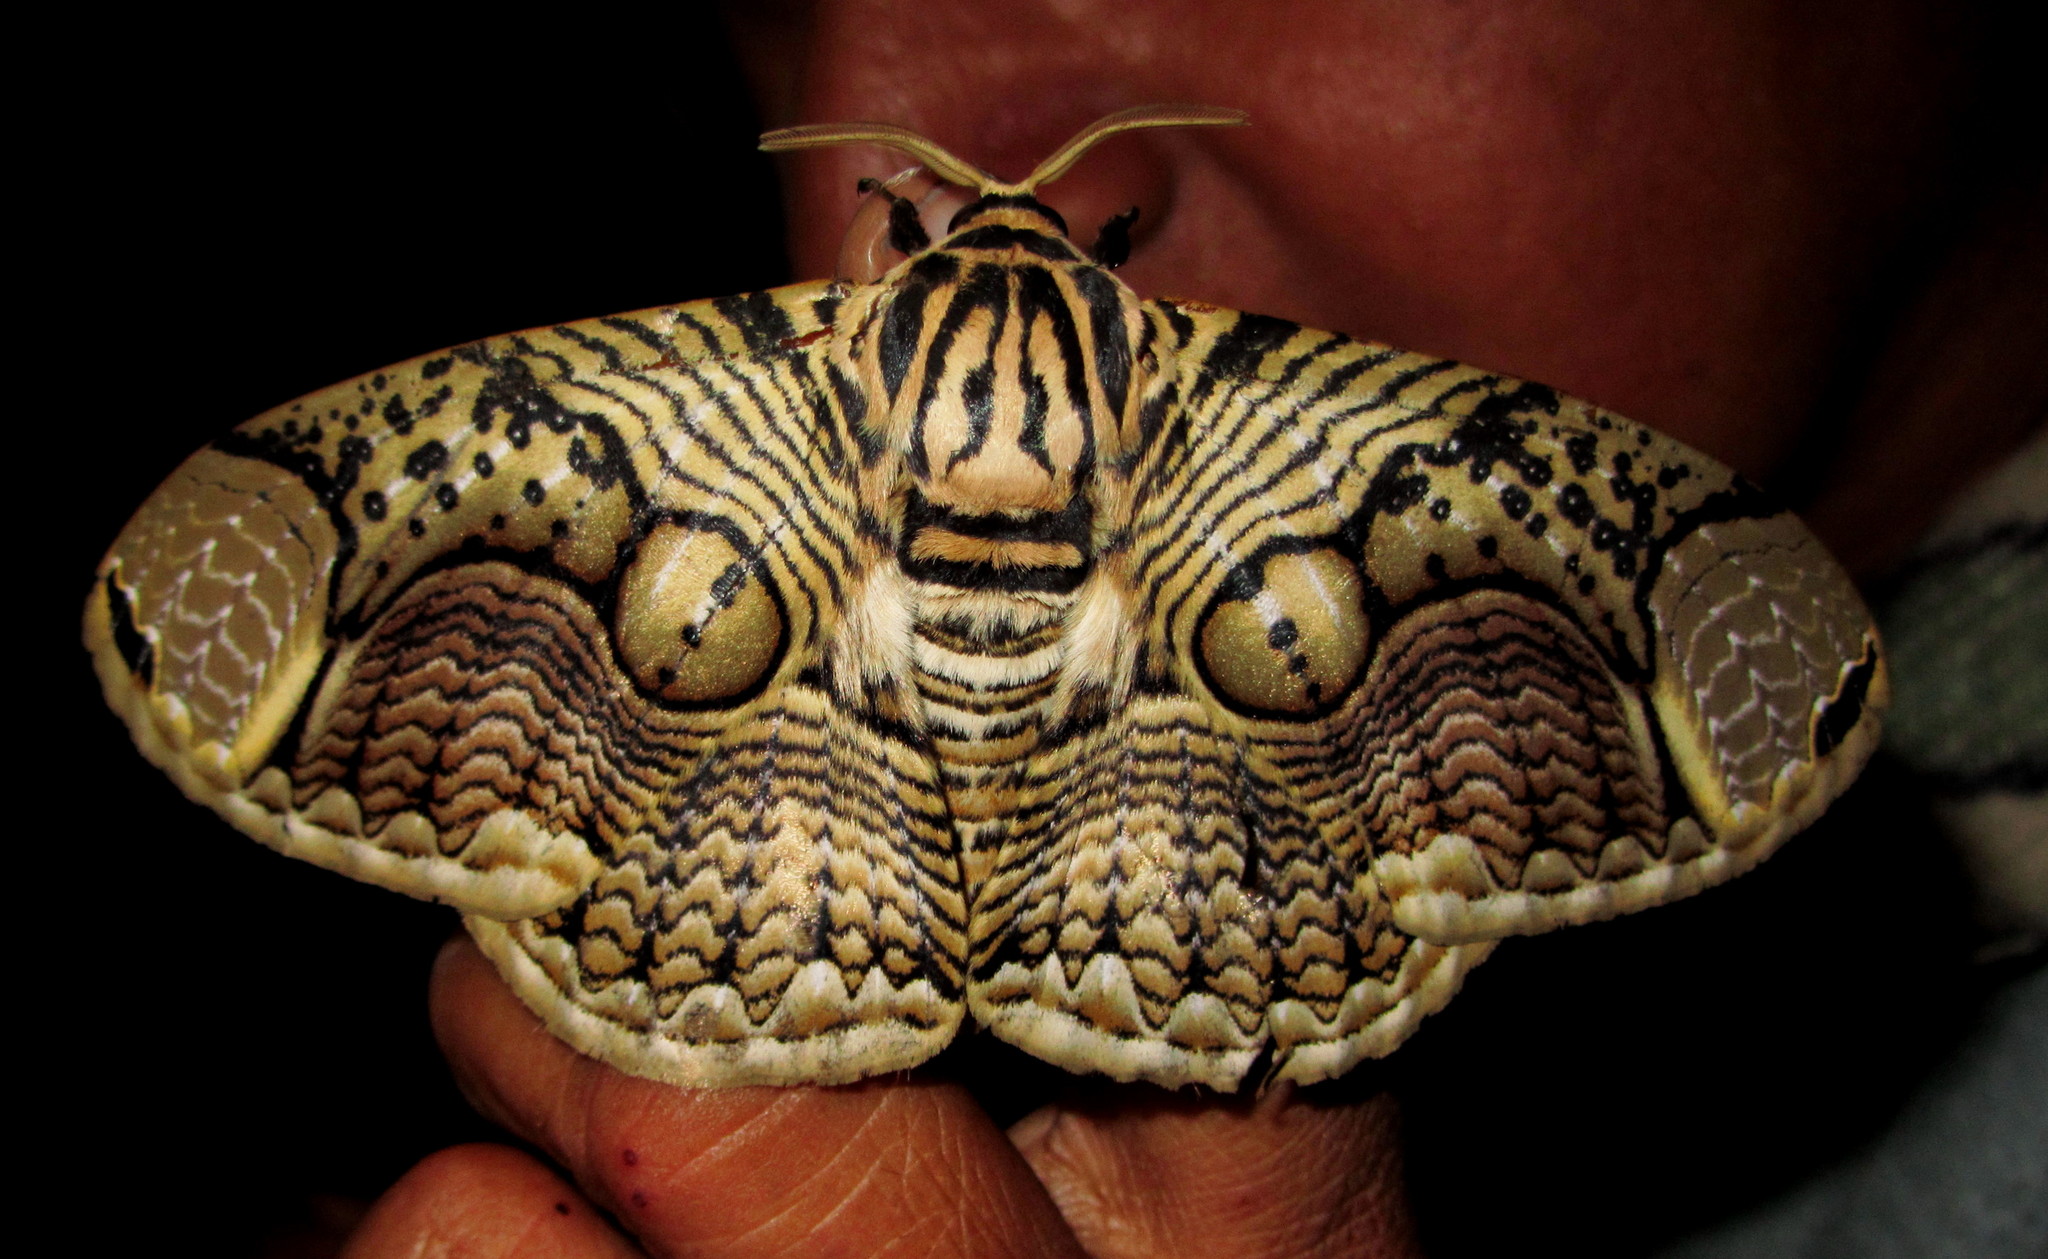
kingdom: Animalia
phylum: Arthropoda
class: Insecta
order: Lepidoptera
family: Brahmaeidae
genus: Brahmaea
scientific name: Brahmaea hearseyi
